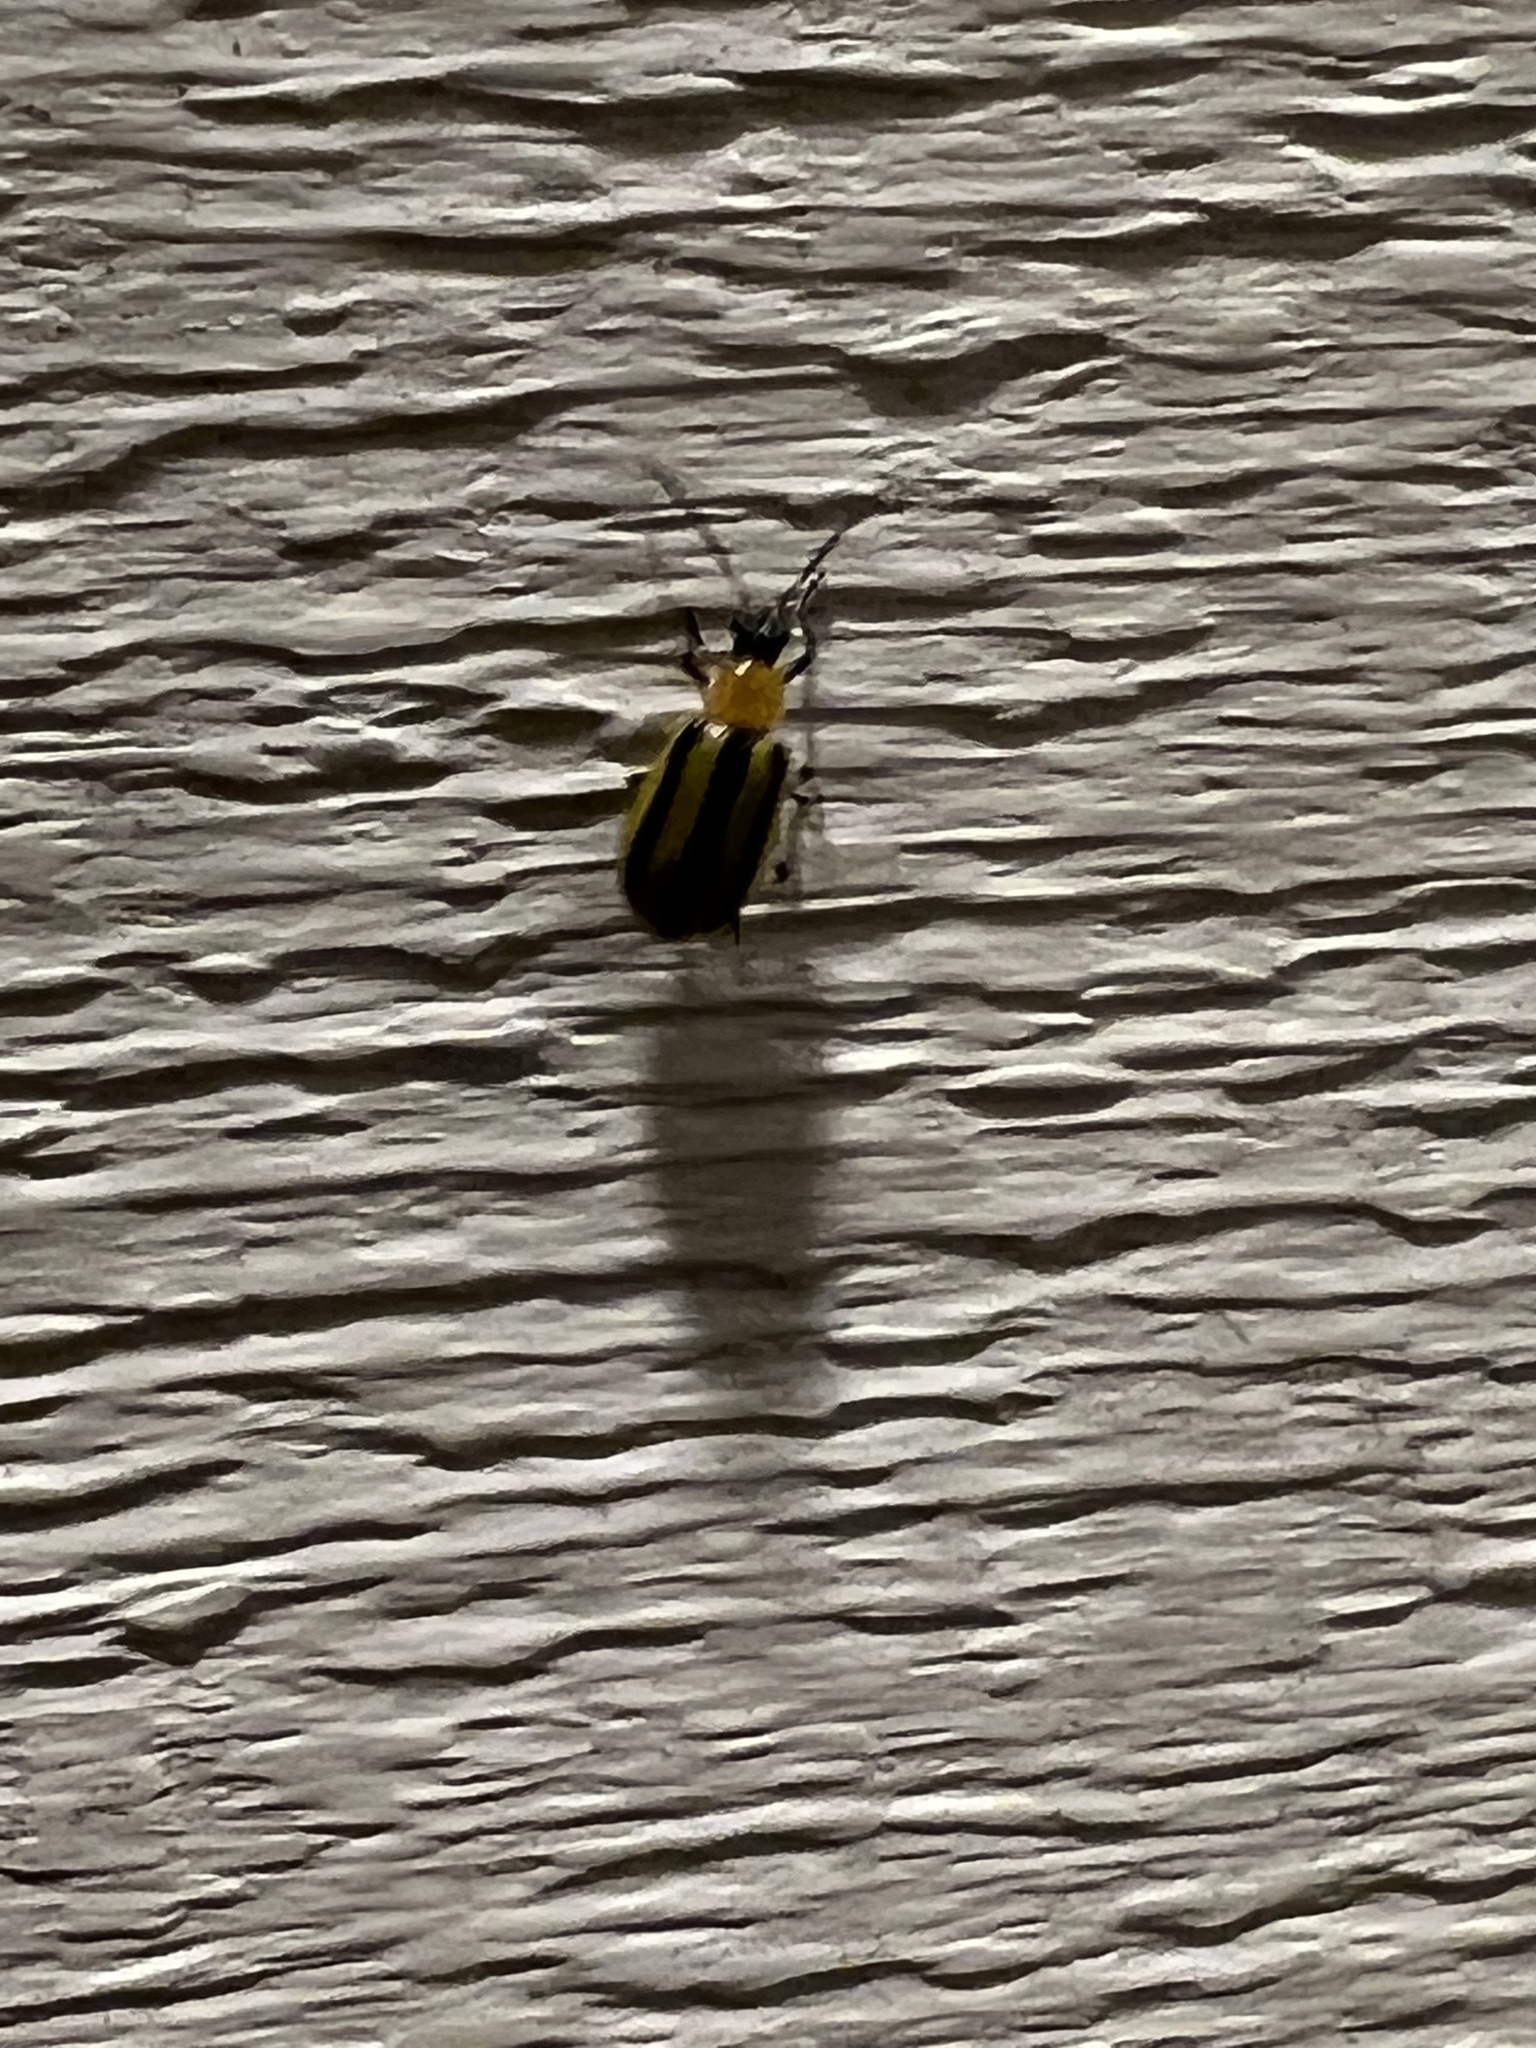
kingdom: Animalia
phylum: Arthropoda
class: Insecta
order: Coleoptera
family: Chrysomelidae
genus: Acalymma
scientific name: Acalymma vittatum
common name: Striped cucumber beetle
